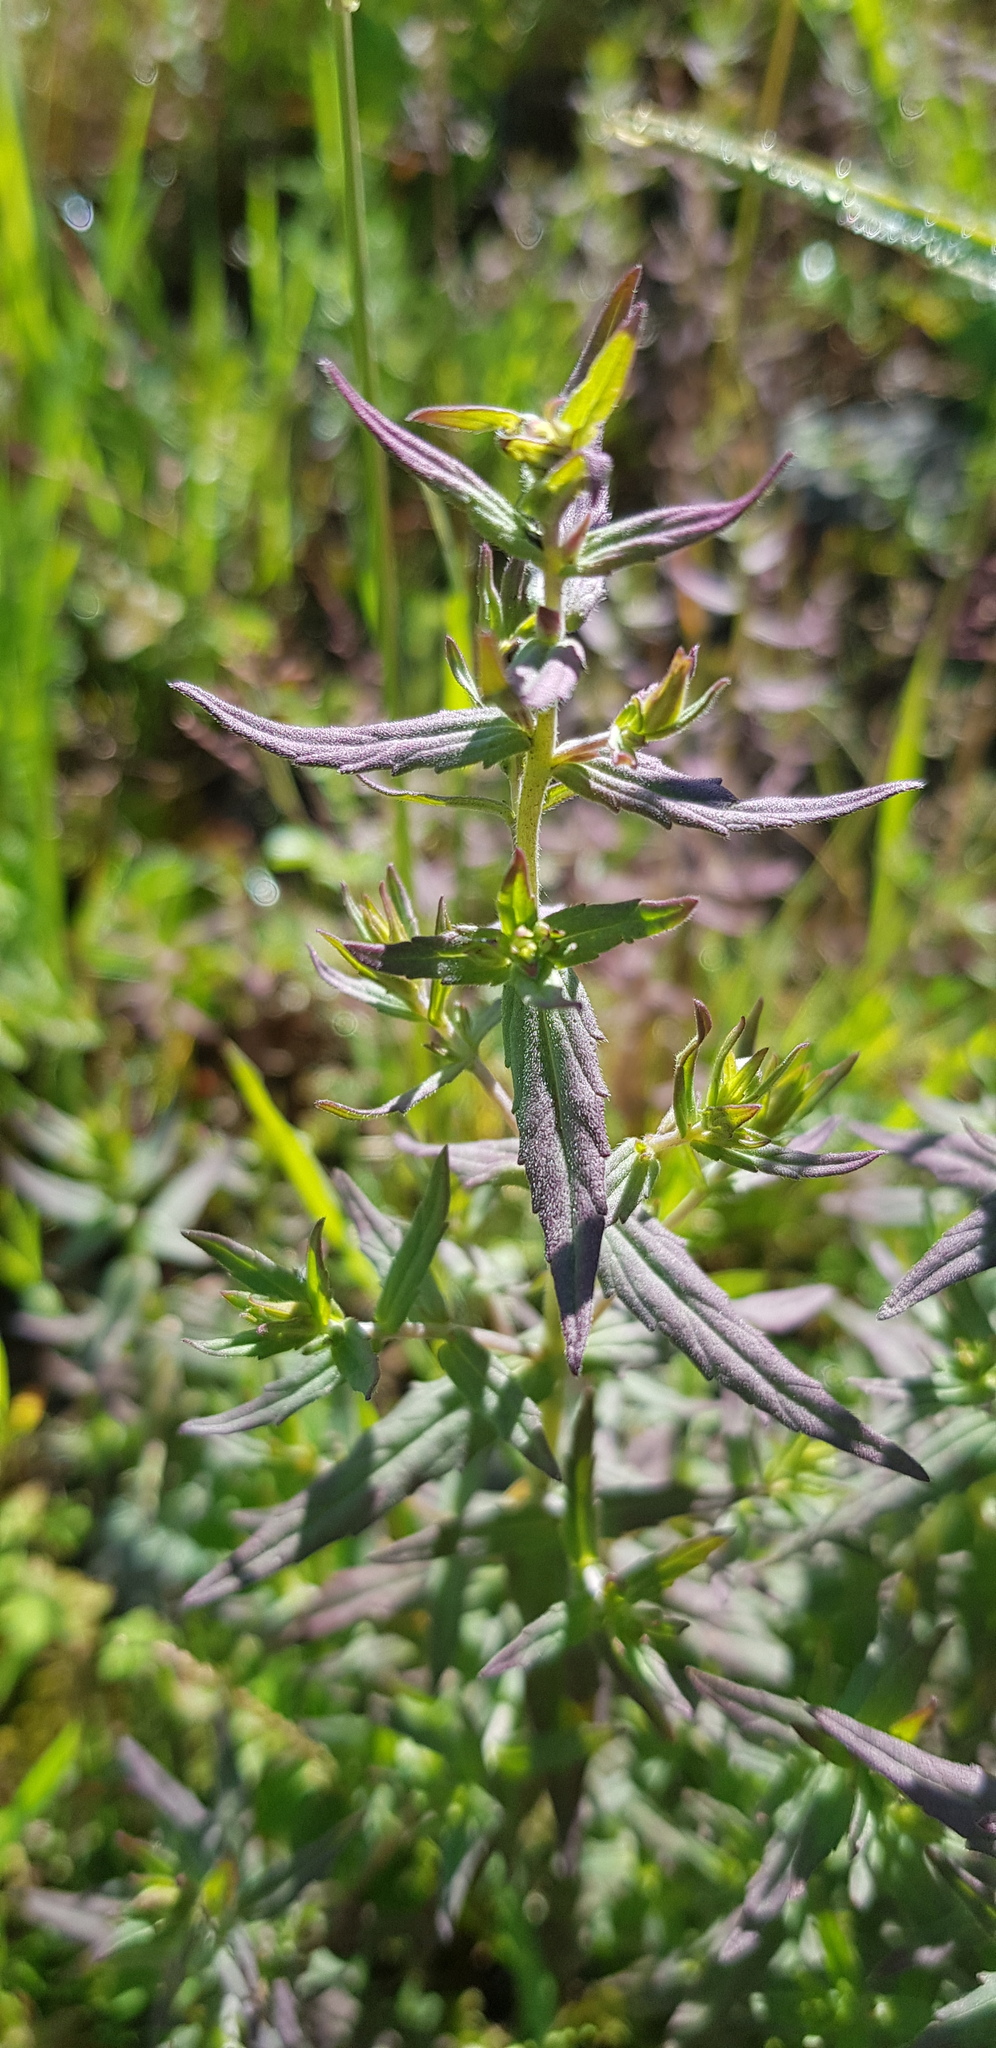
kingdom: Plantae
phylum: Tracheophyta
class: Magnoliopsida
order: Lamiales
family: Orobanchaceae
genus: Odontites
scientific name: Odontites vulgaris
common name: Broomrape
